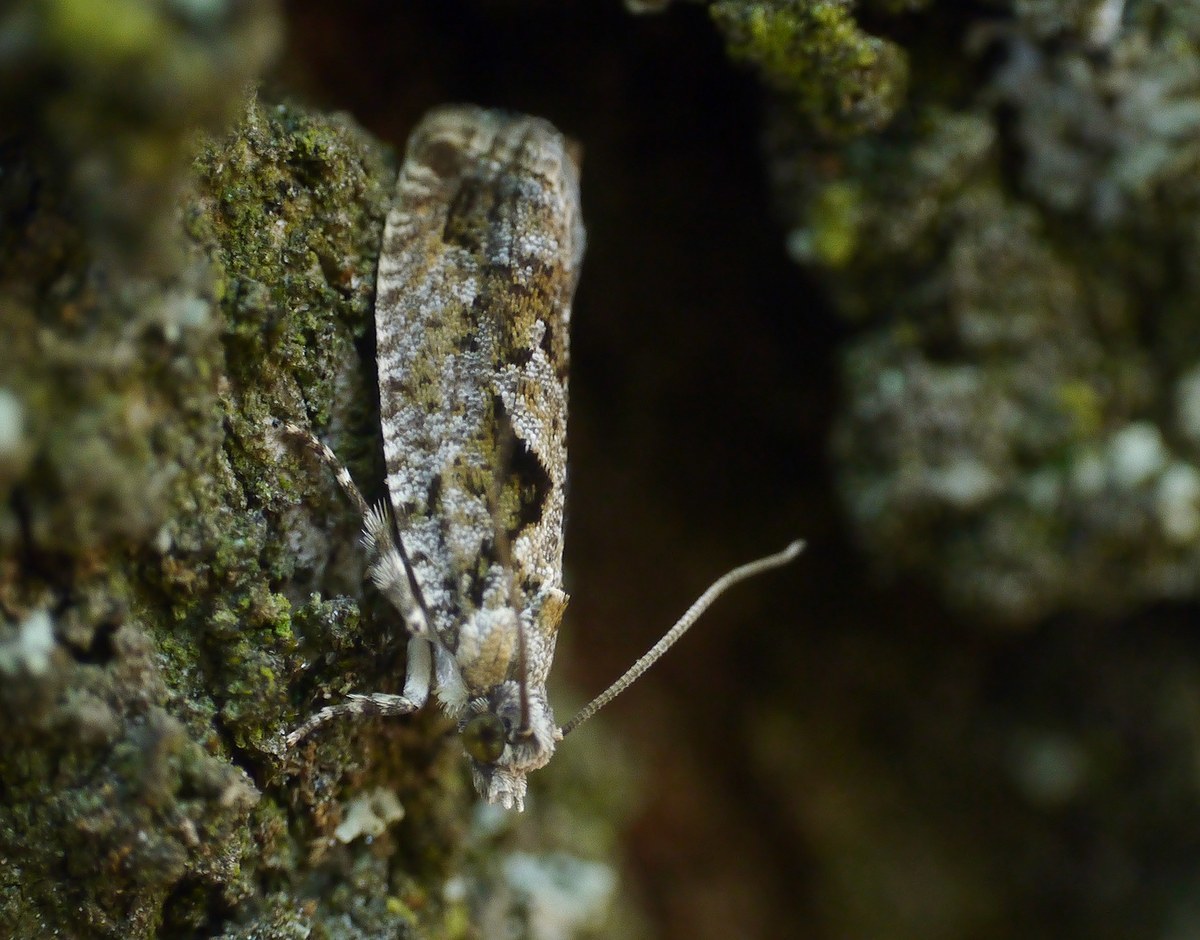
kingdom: Animalia
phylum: Arthropoda
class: Insecta
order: Lepidoptera
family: Tortricidae
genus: Zeiraphera
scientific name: Zeiraphera isertana
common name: Cock's-head bell
